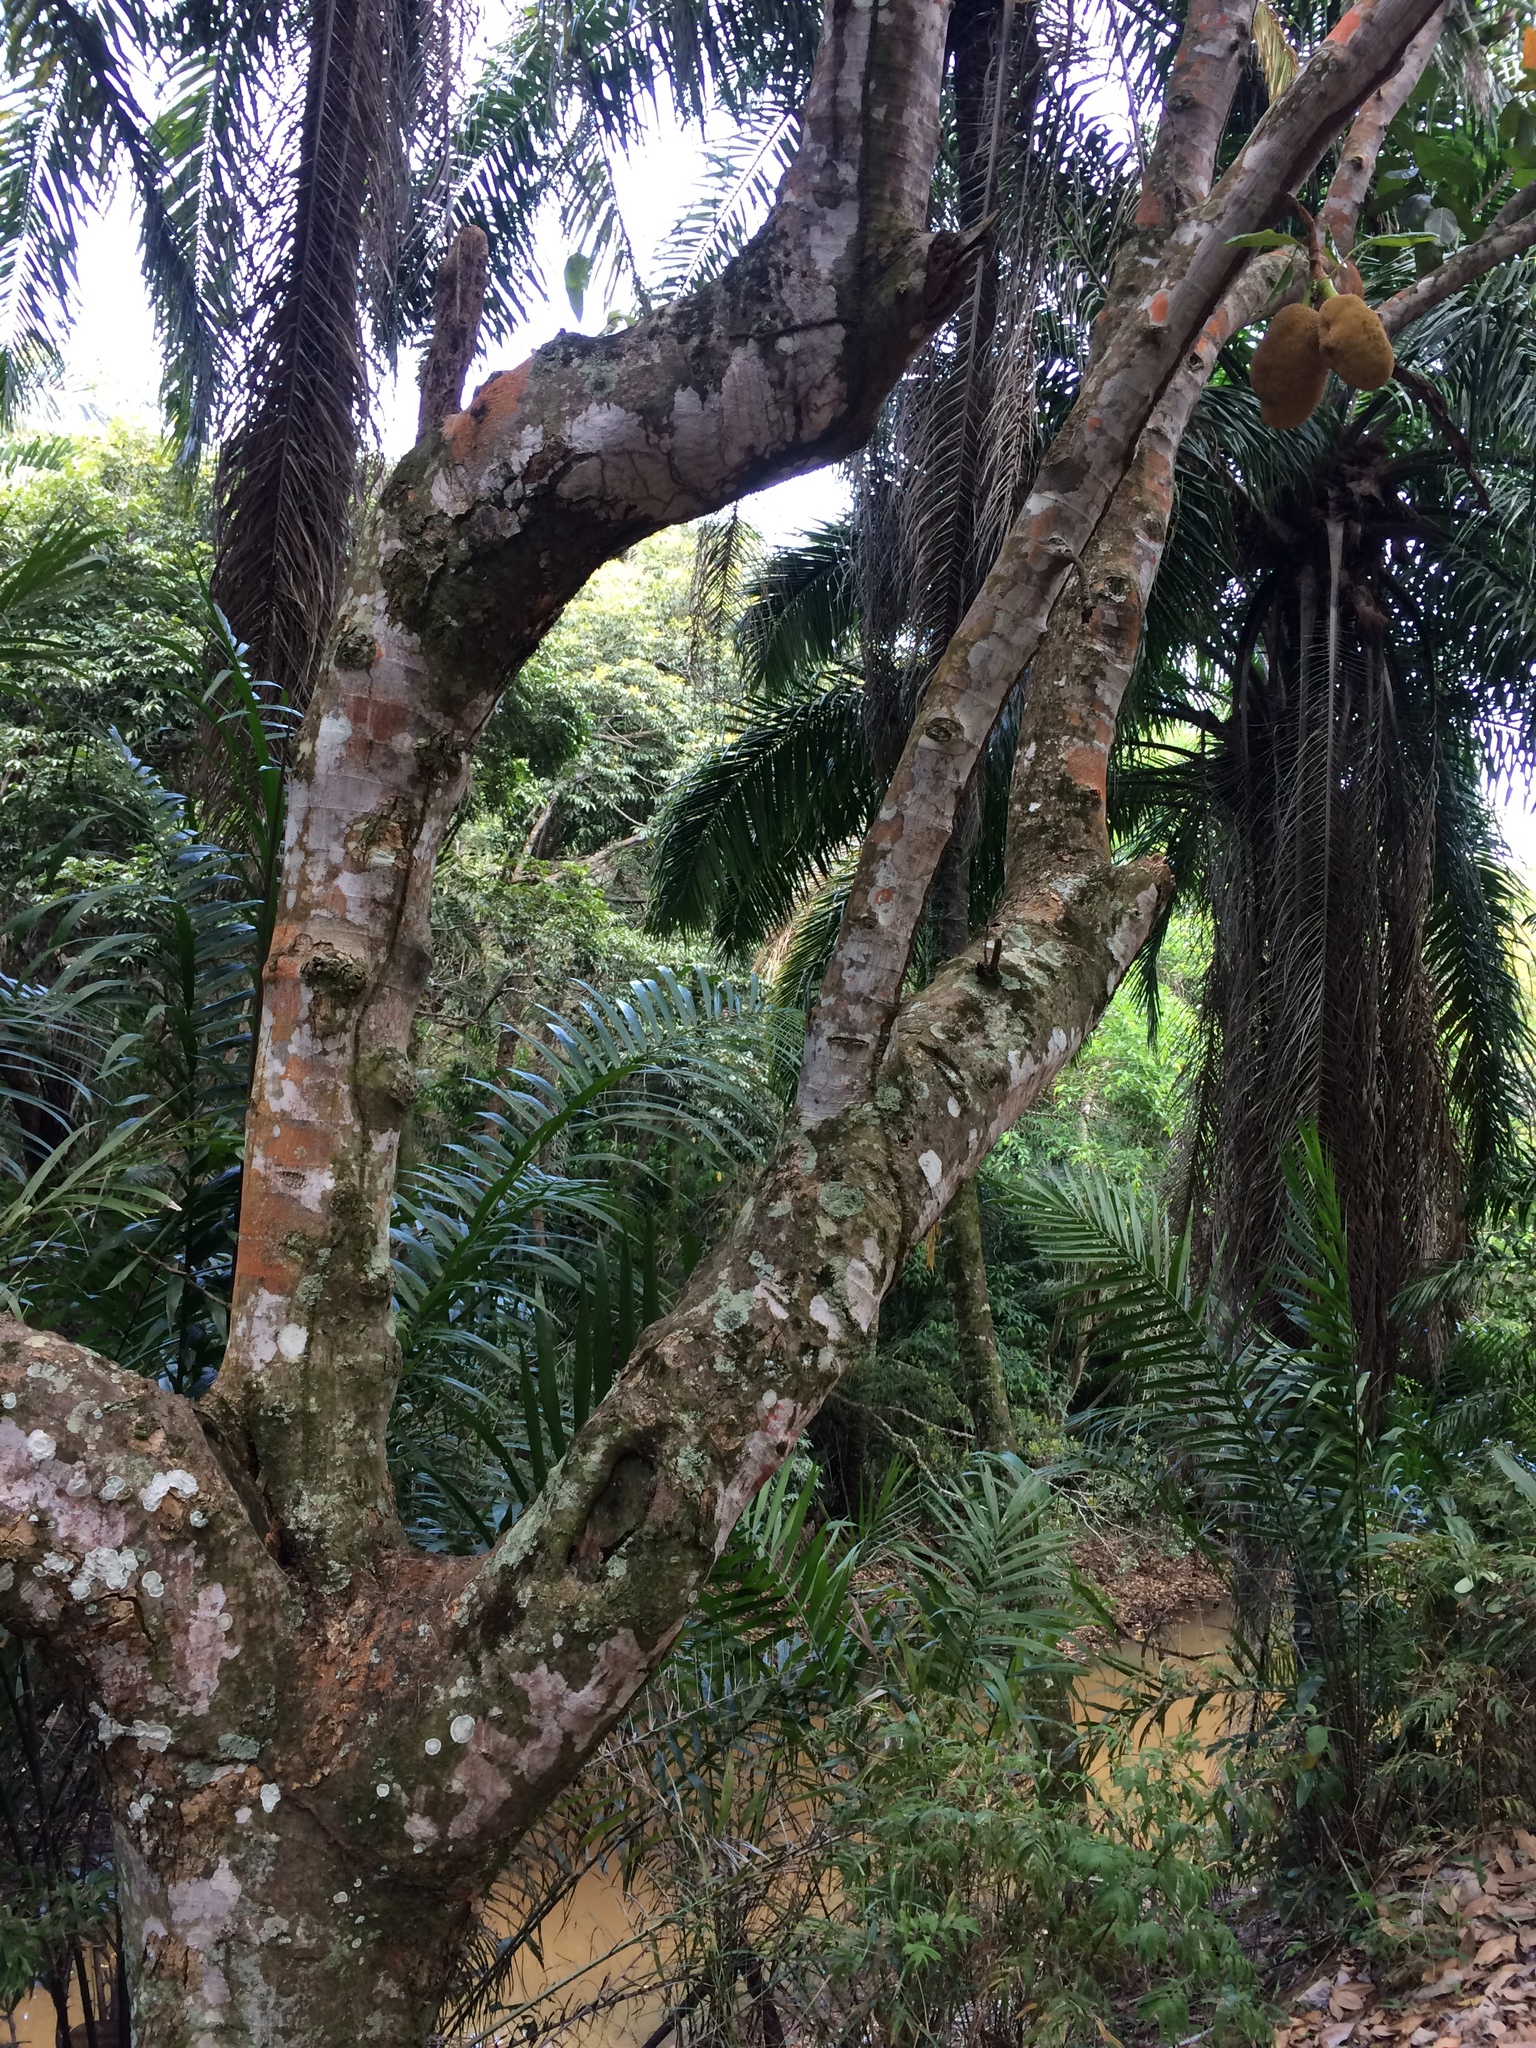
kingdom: Plantae
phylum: Tracheophyta
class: Magnoliopsida
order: Rosales
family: Moraceae
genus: Artocarpus
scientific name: Artocarpus heterophyllus
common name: Jackfruit
